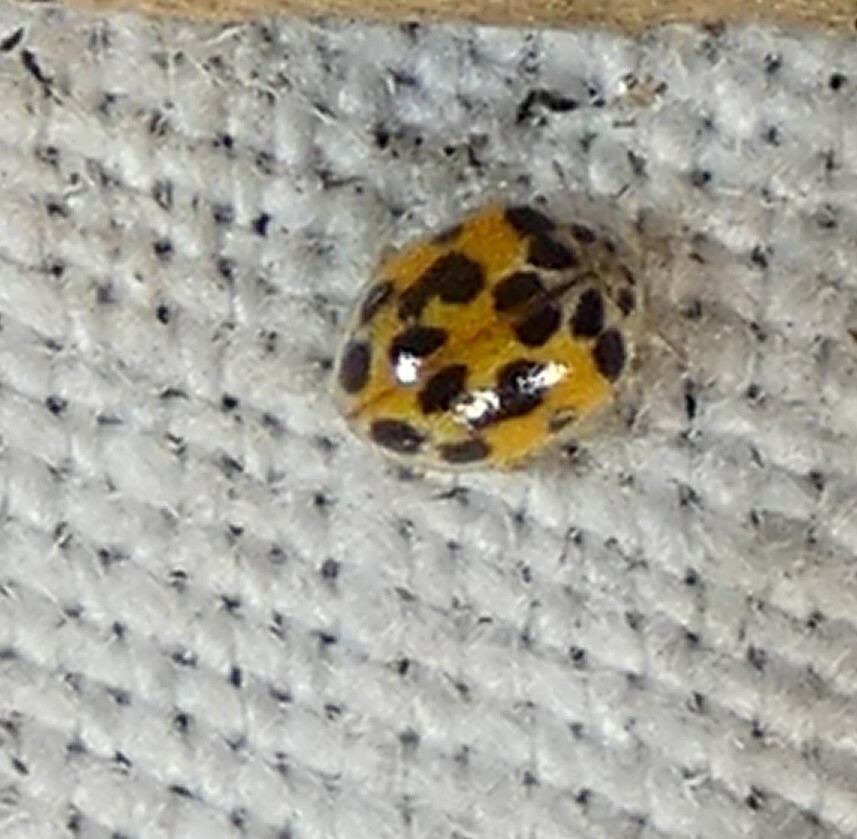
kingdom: Animalia
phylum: Arthropoda
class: Insecta
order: Coleoptera
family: Coccinellidae
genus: Psyllobora
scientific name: Psyllobora vigintimaculata
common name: Ladybird beetle
